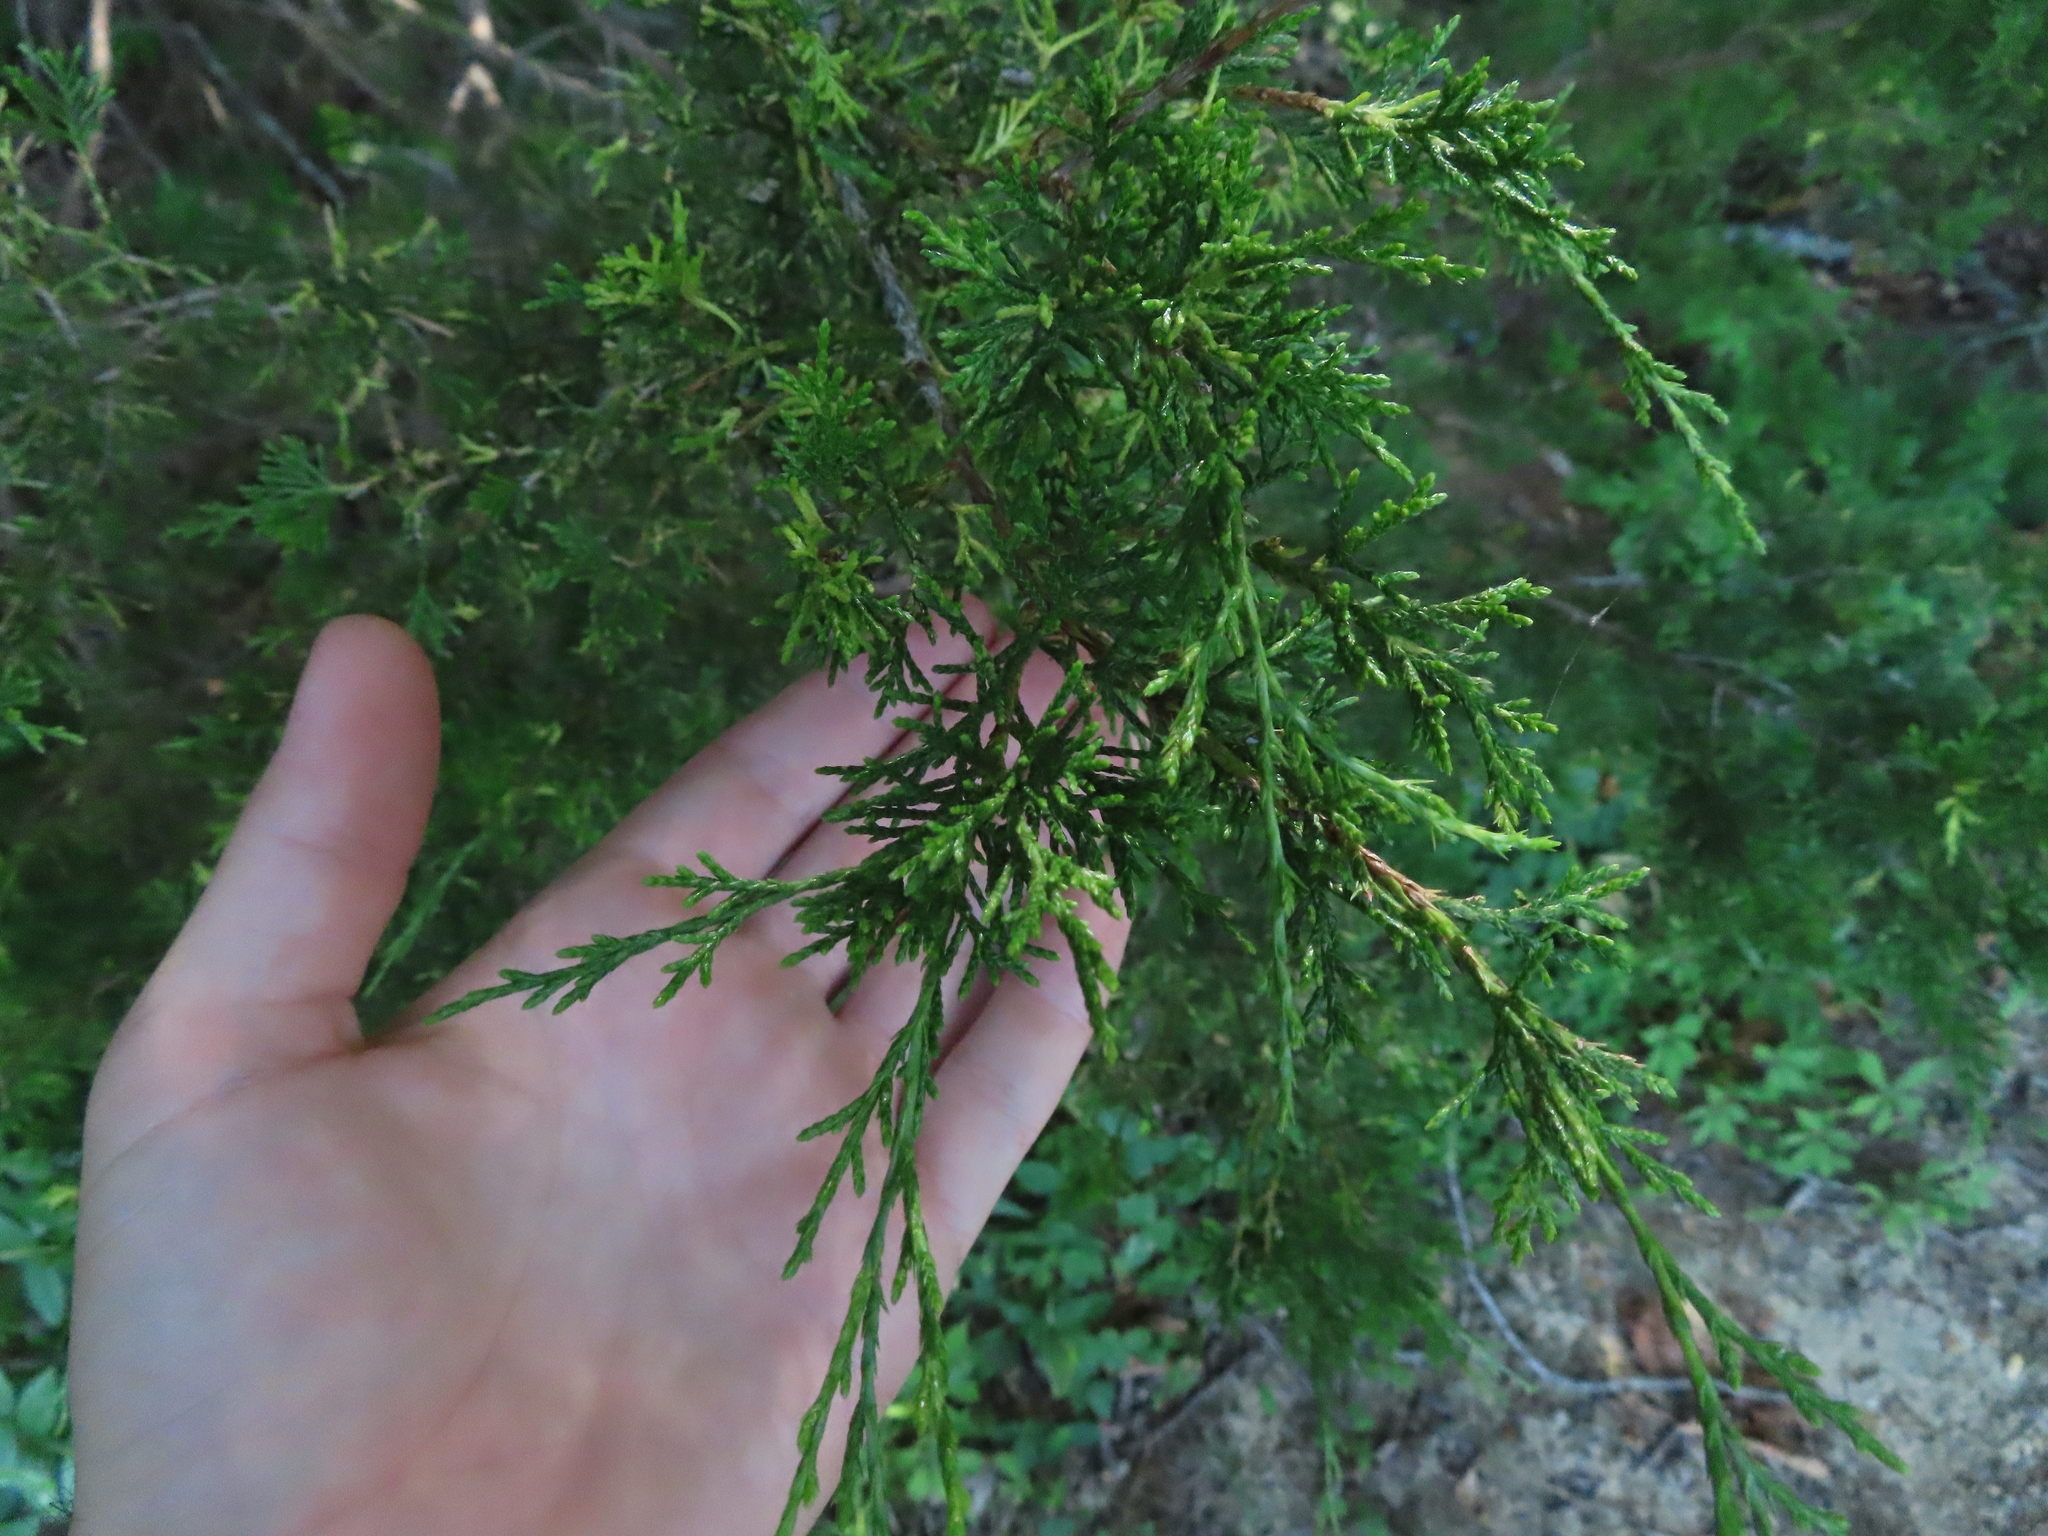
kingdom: Plantae
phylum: Tracheophyta
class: Pinopsida
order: Pinales
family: Cupressaceae
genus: Juniperus
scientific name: Juniperus virginiana
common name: Red juniper
